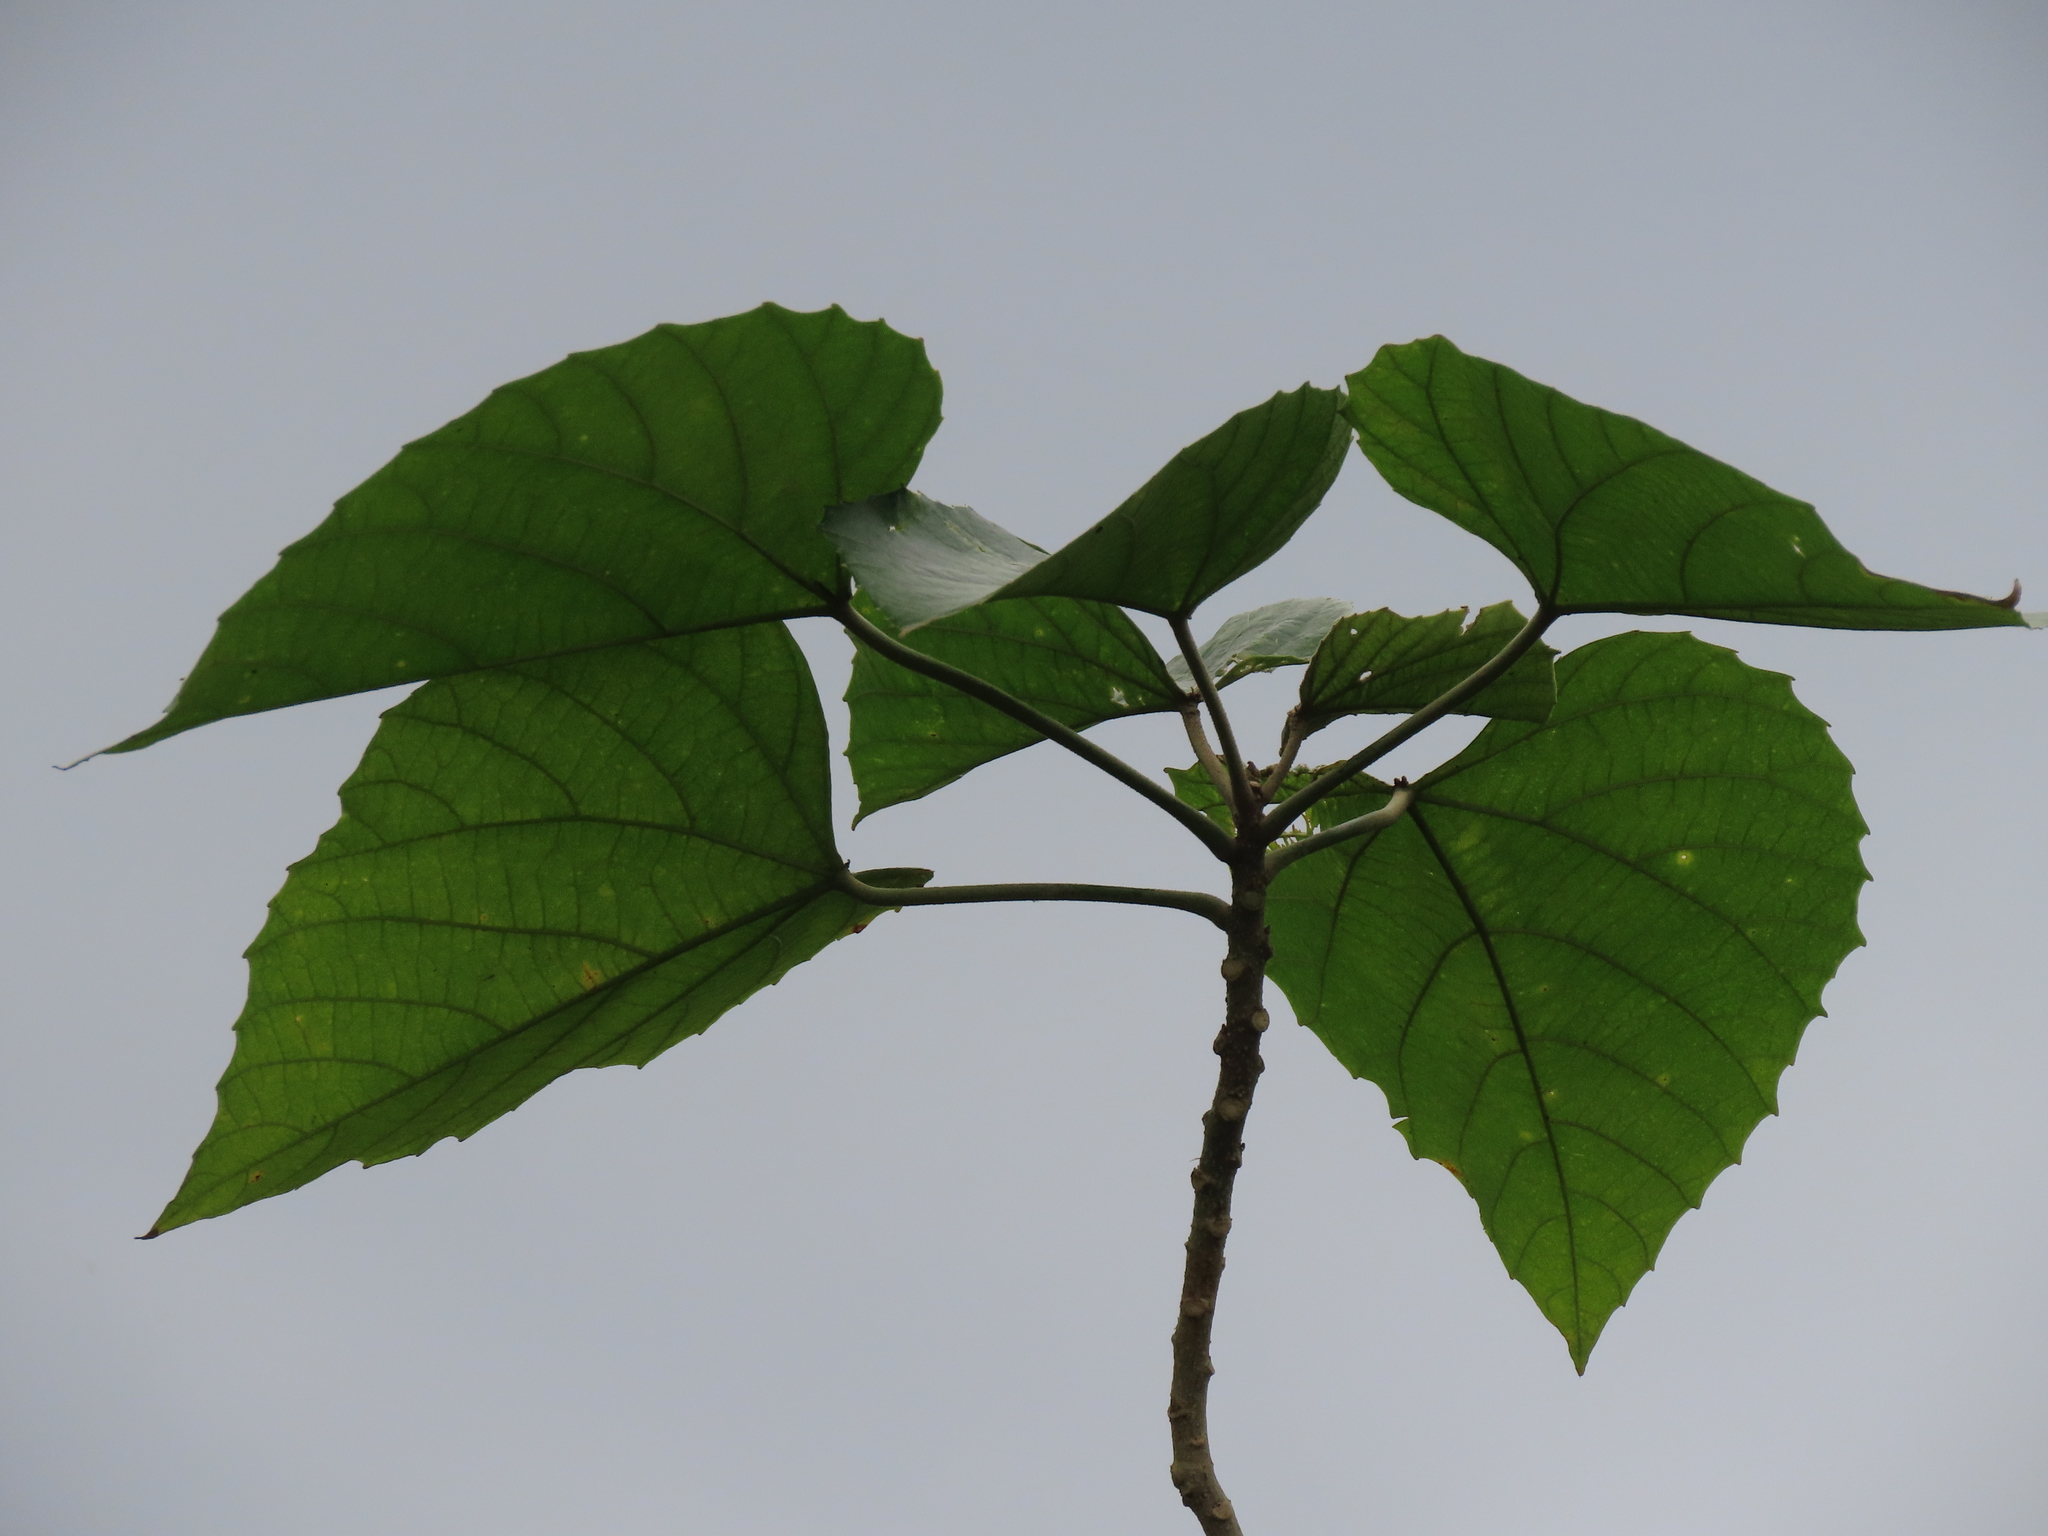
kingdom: Plantae
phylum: Tracheophyta
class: Magnoliopsida
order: Malpighiales
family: Euphorbiaceae
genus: Melanolepis
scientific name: Melanolepis multiglandulosa
